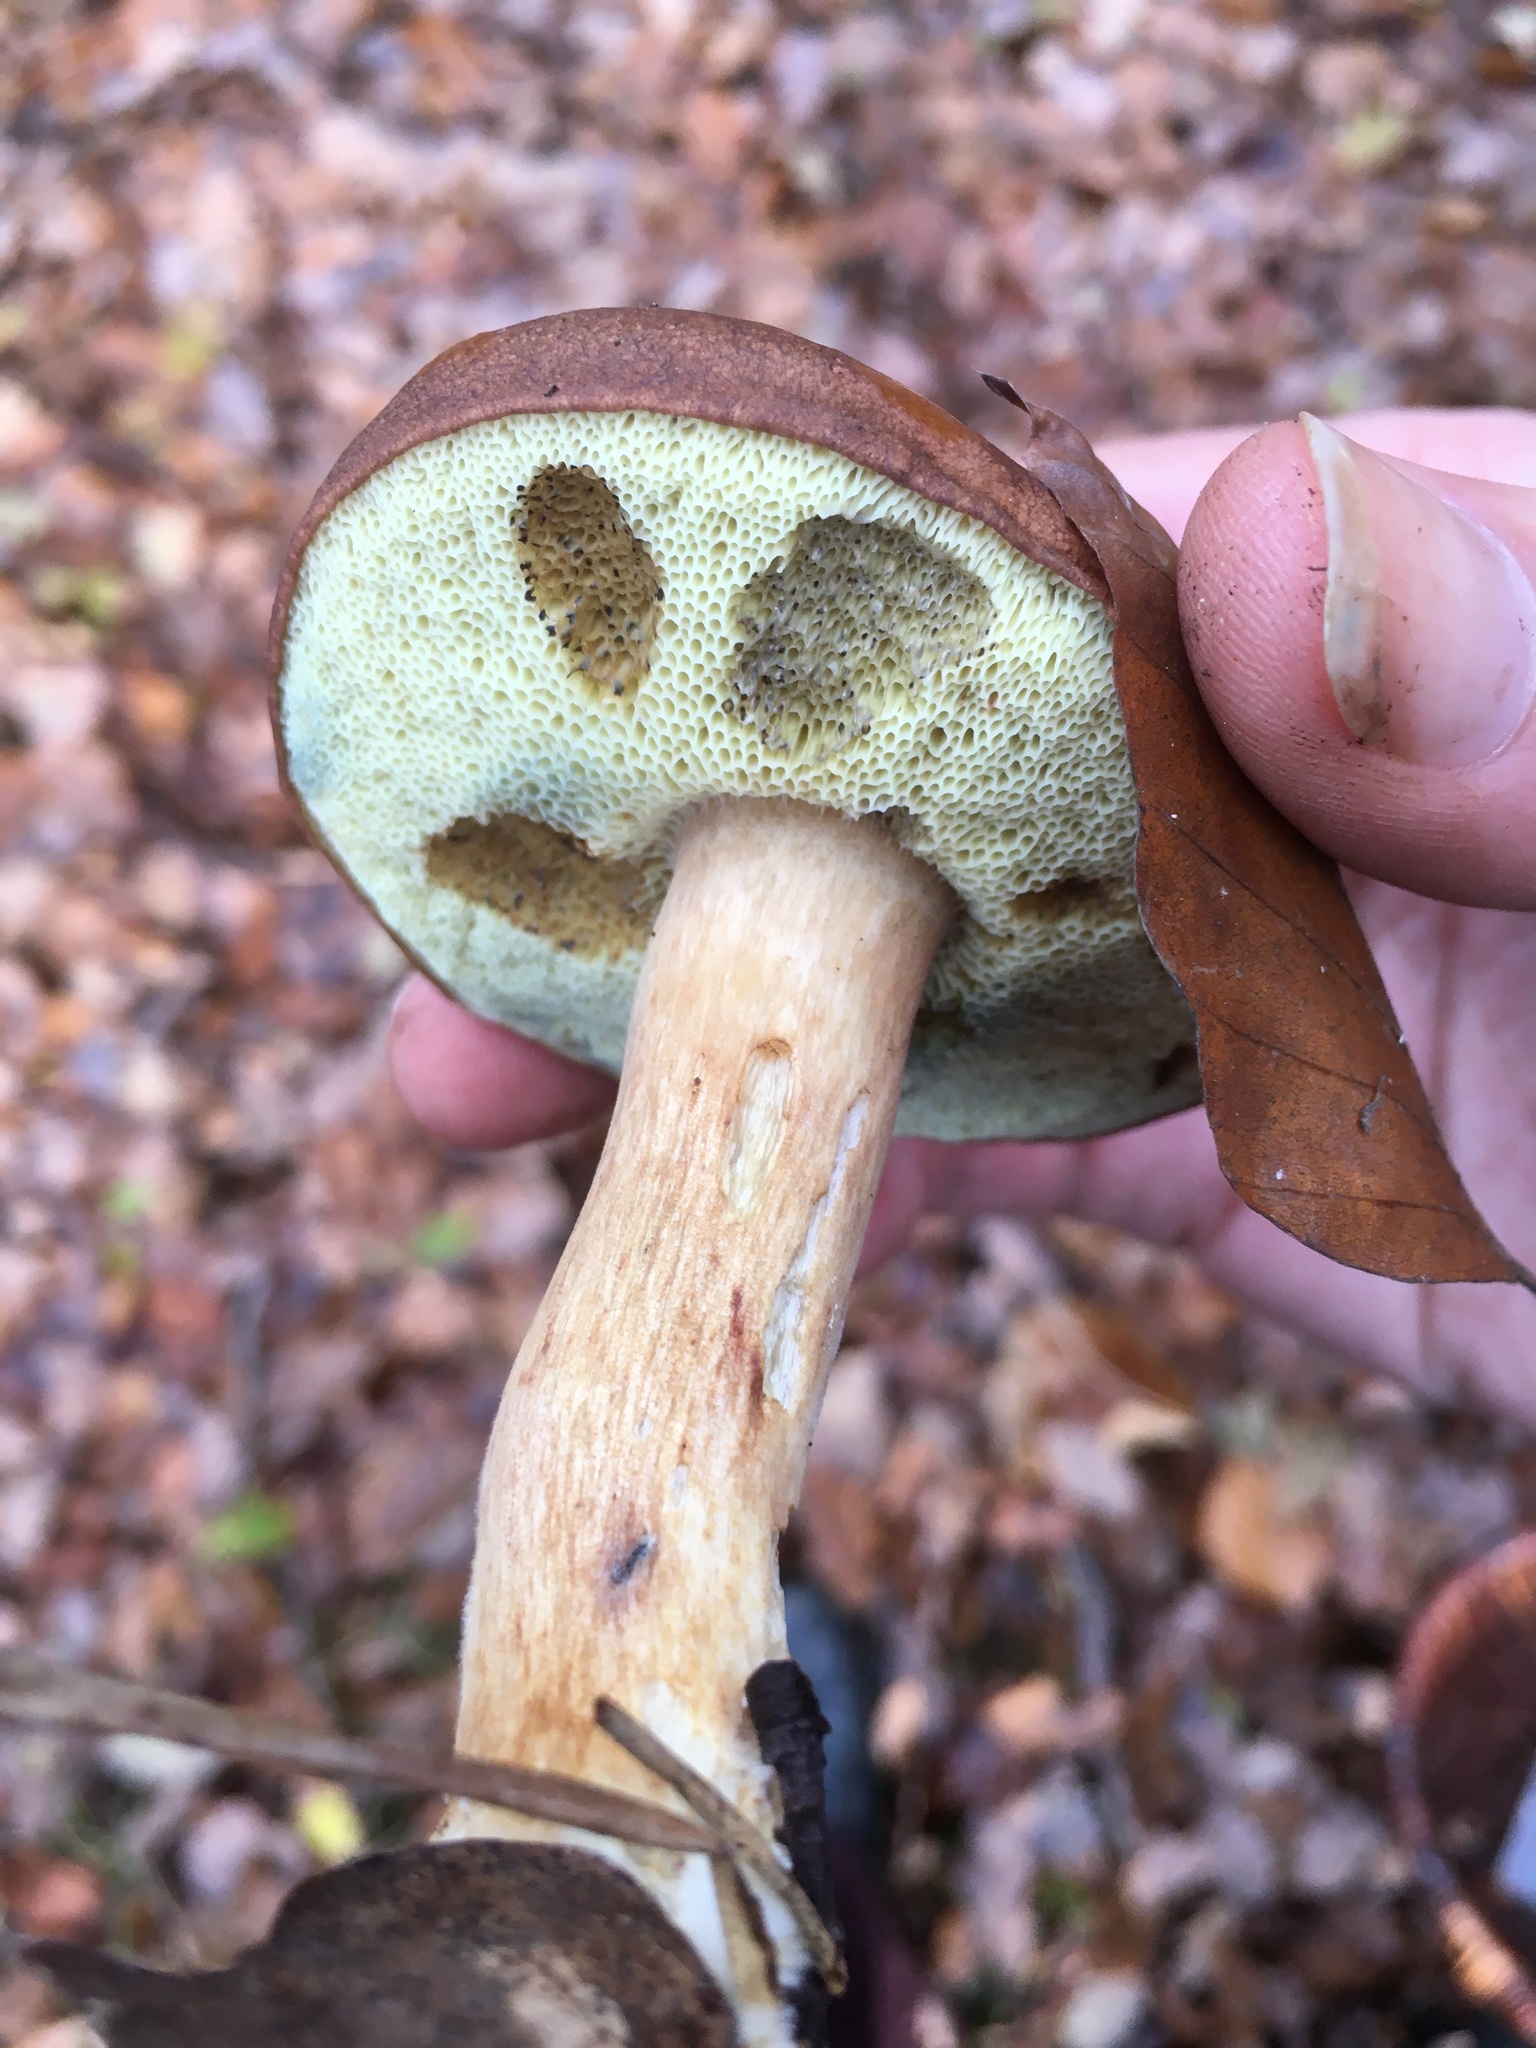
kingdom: Fungi
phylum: Basidiomycota
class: Agaricomycetes
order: Boletales
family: Boletaceae
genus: Imleria
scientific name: Imleria badia
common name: Bay bolete
